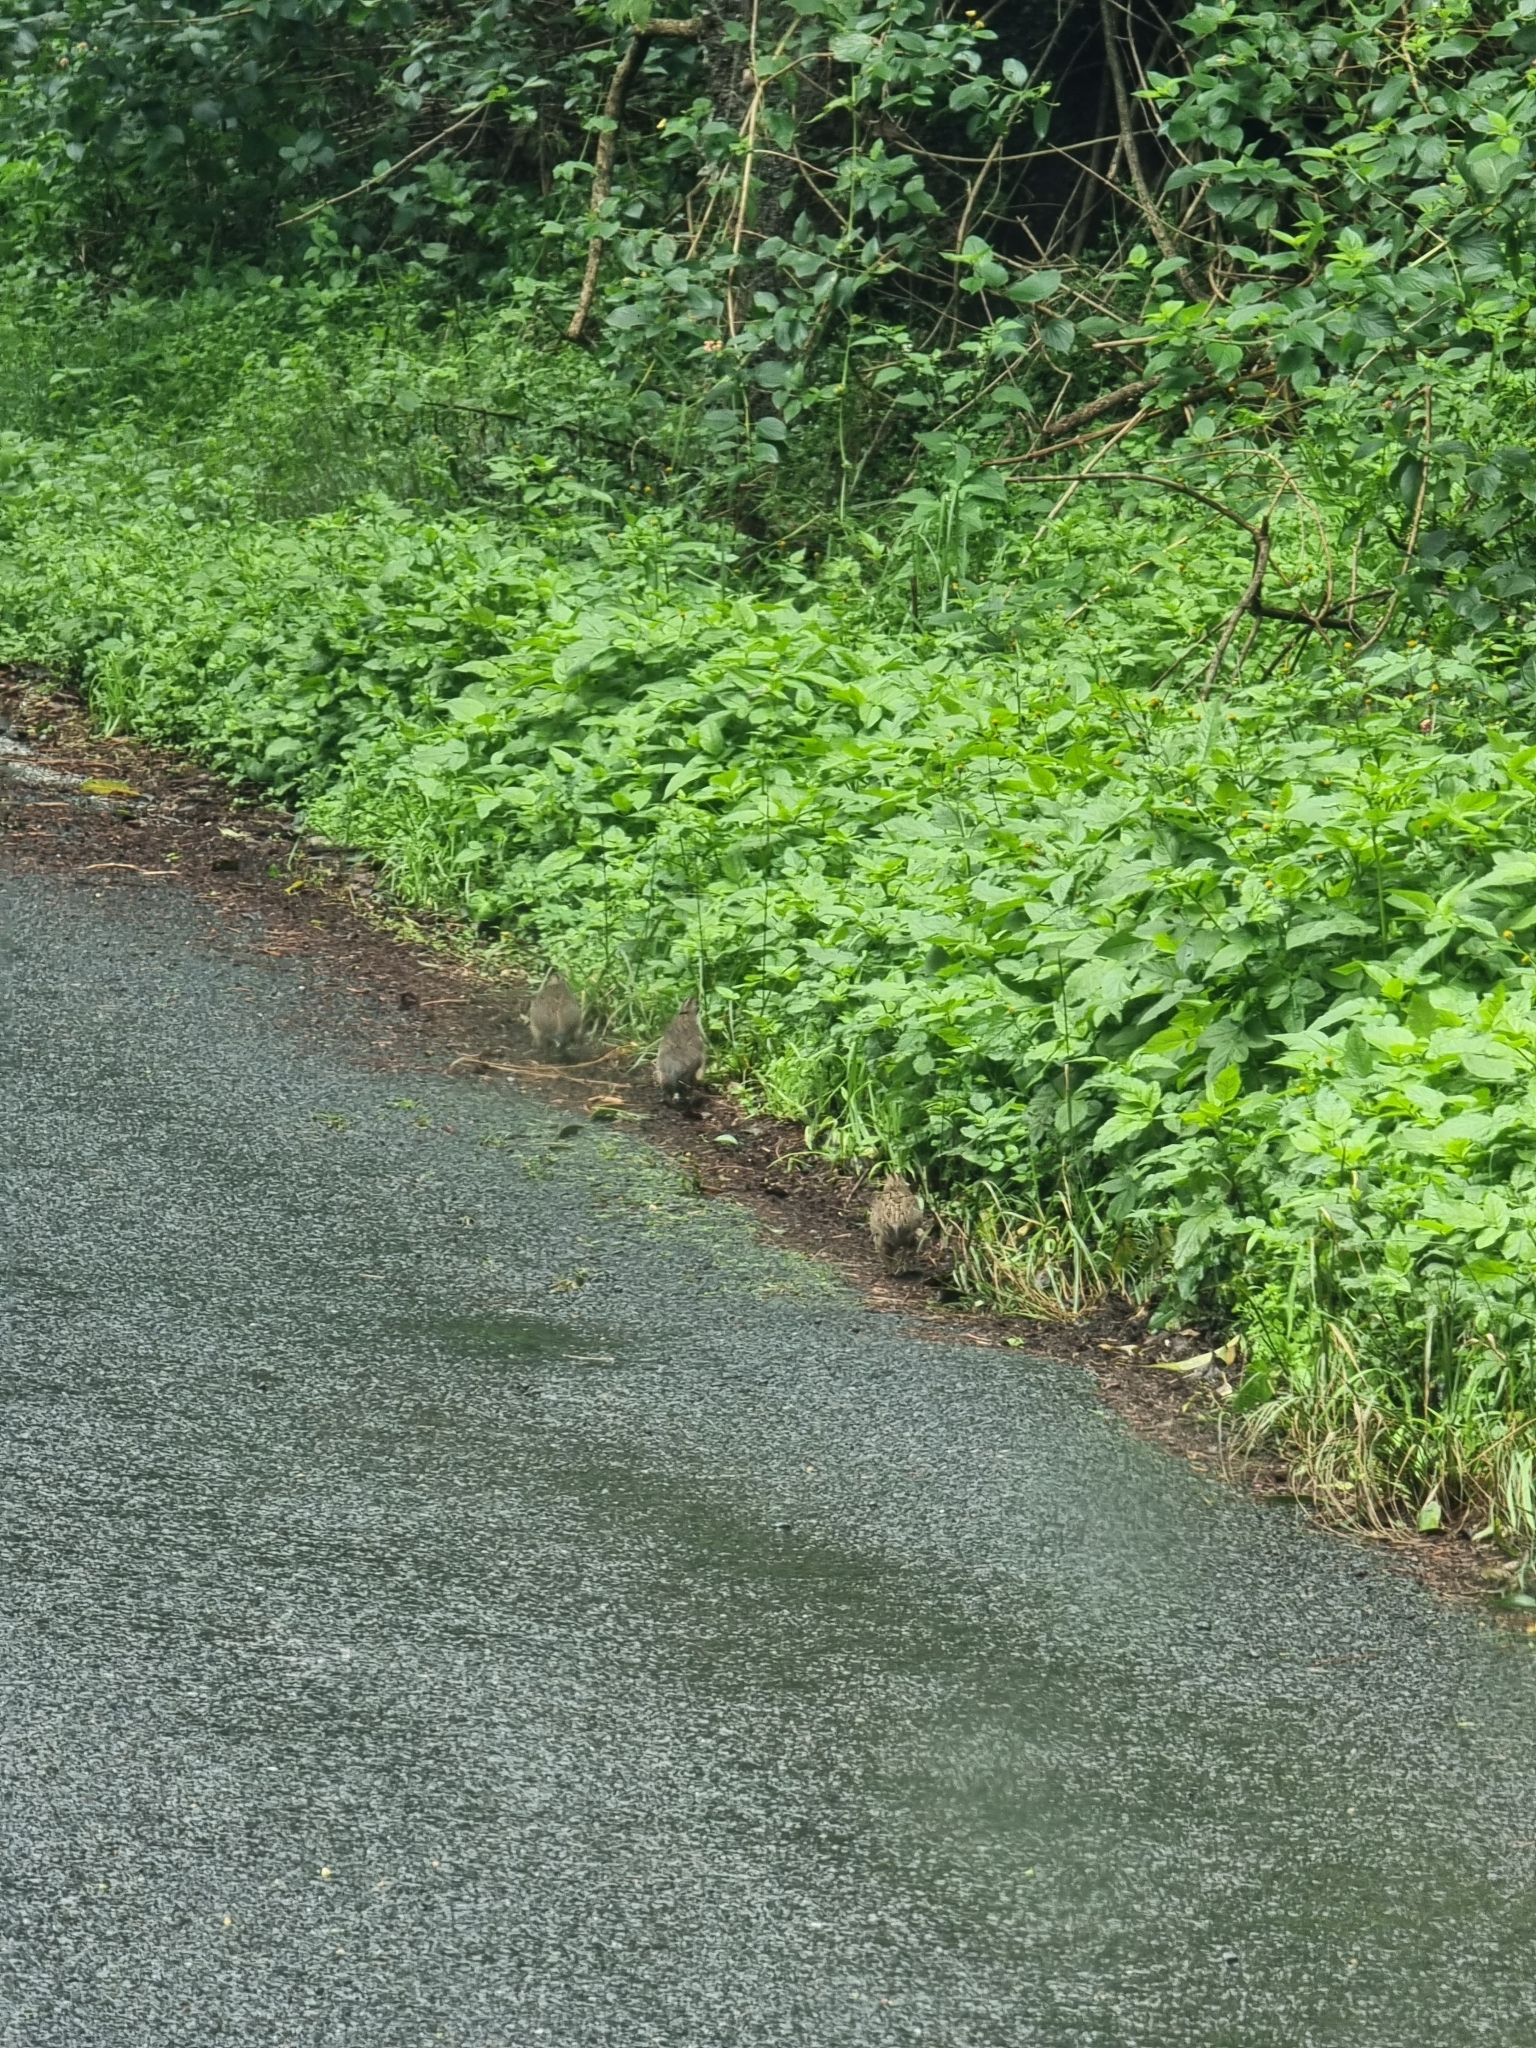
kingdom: Animalia
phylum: Chordata
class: Aves
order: Galliformes
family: Phasianidae
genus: Synoicus
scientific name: Synoicus ypsilophorus
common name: Brown quail
